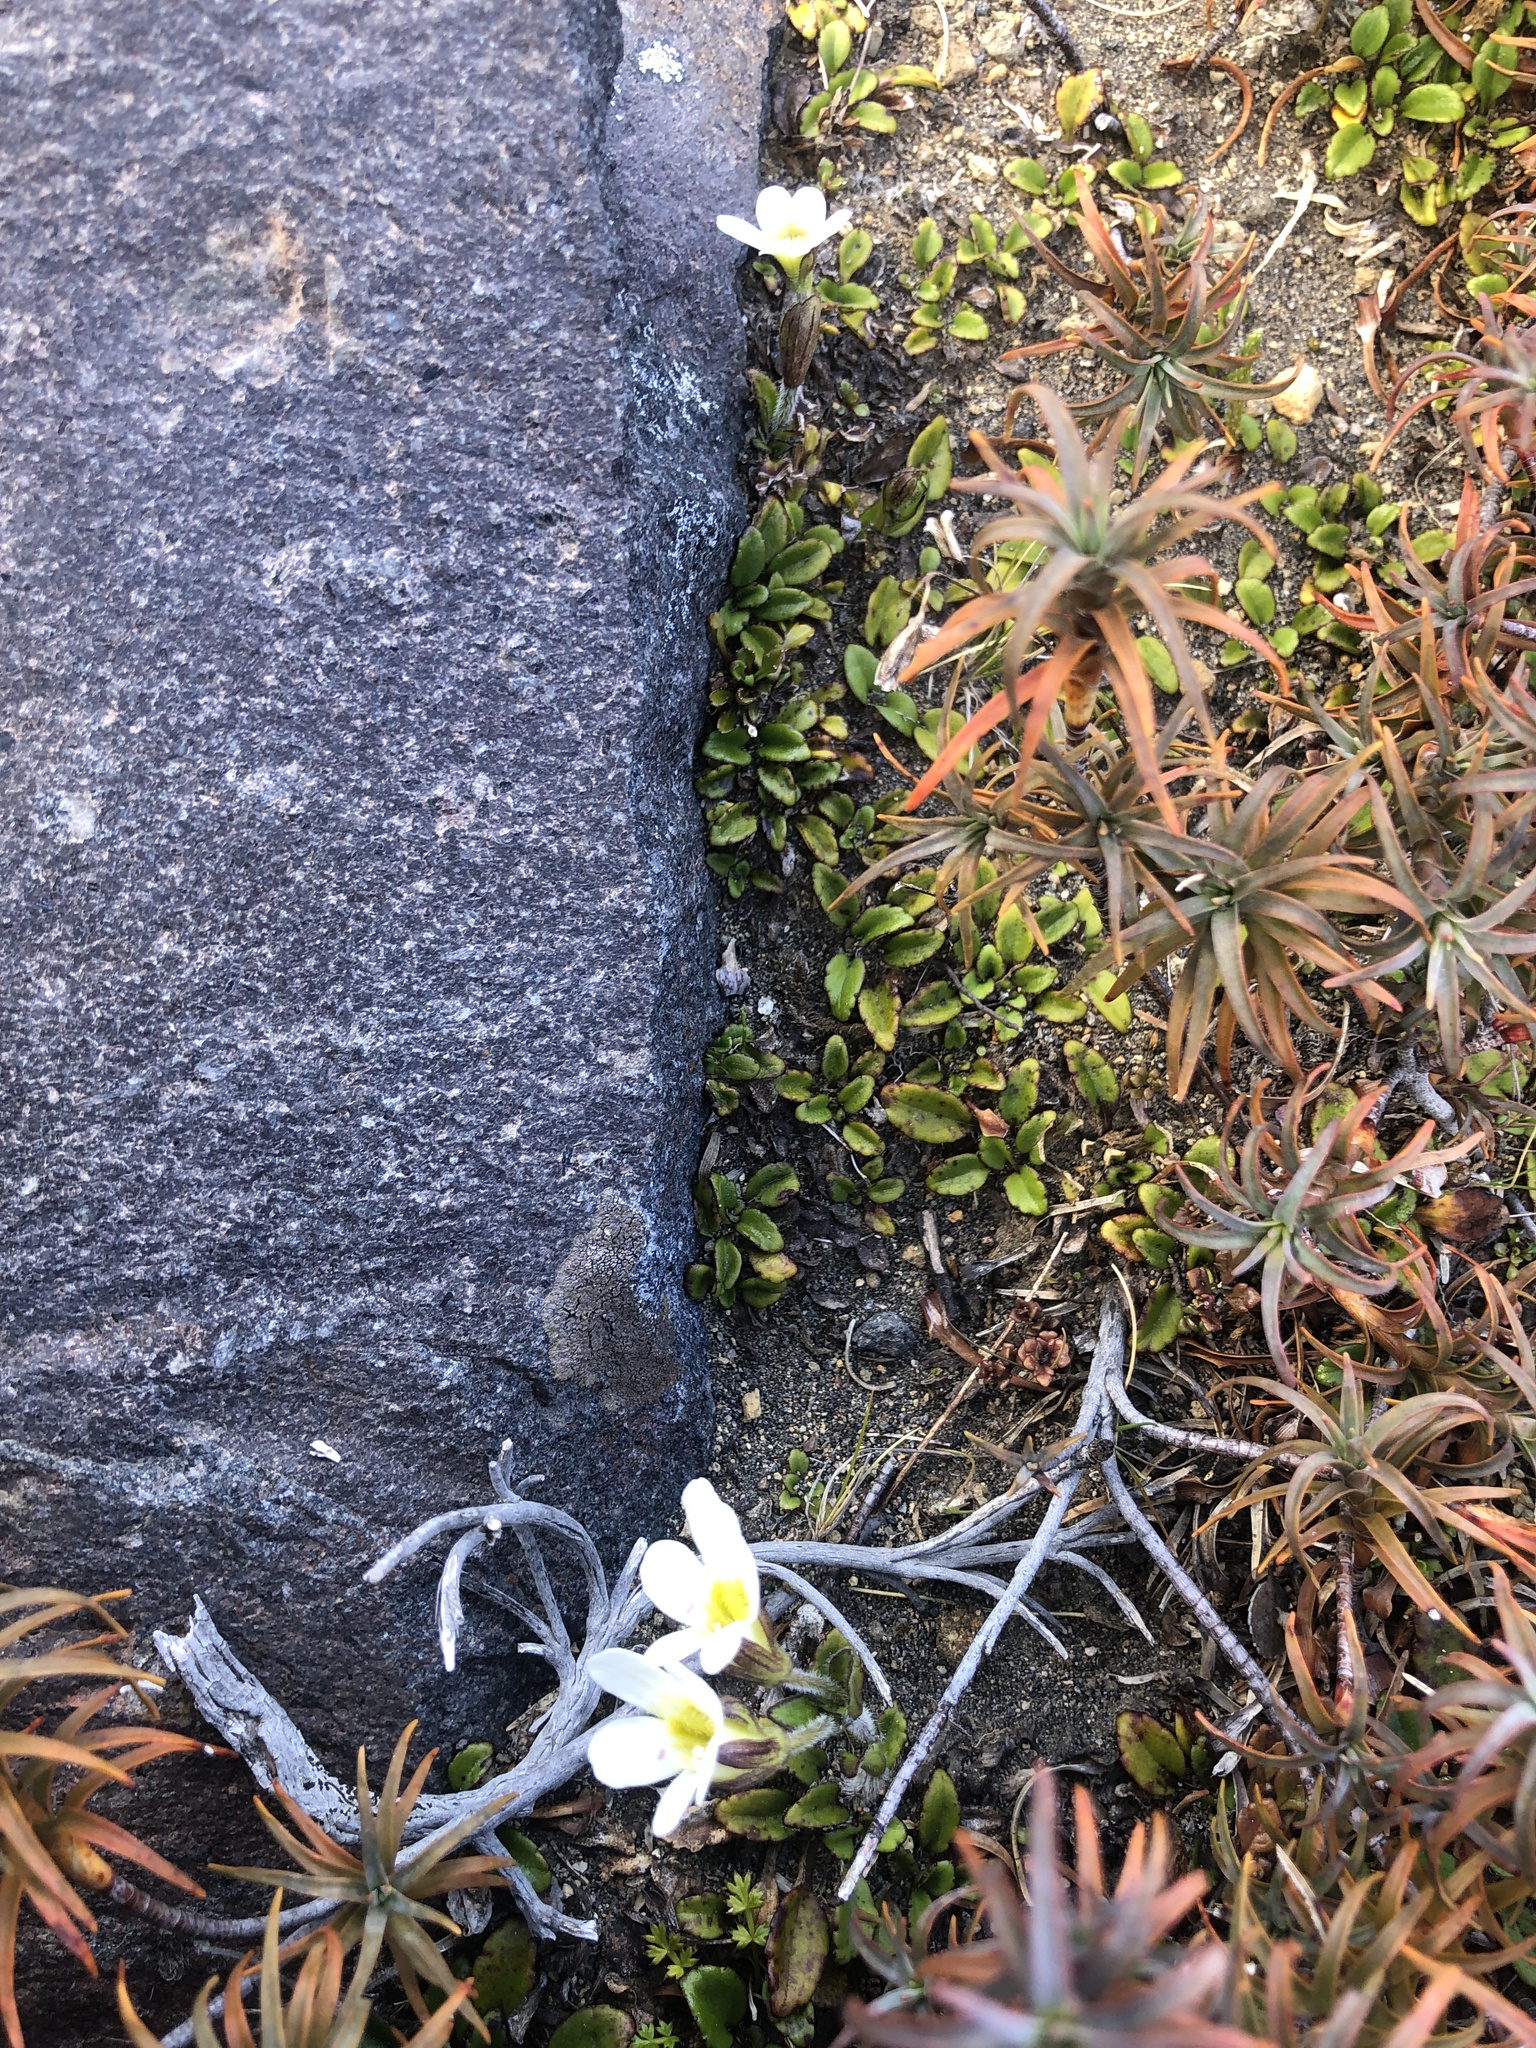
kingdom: Plantae
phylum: Tracheophyta
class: Magnoliopsida
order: Lamiales
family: Plantaginaceae
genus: Ourisia
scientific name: Ourisia vulcanica
